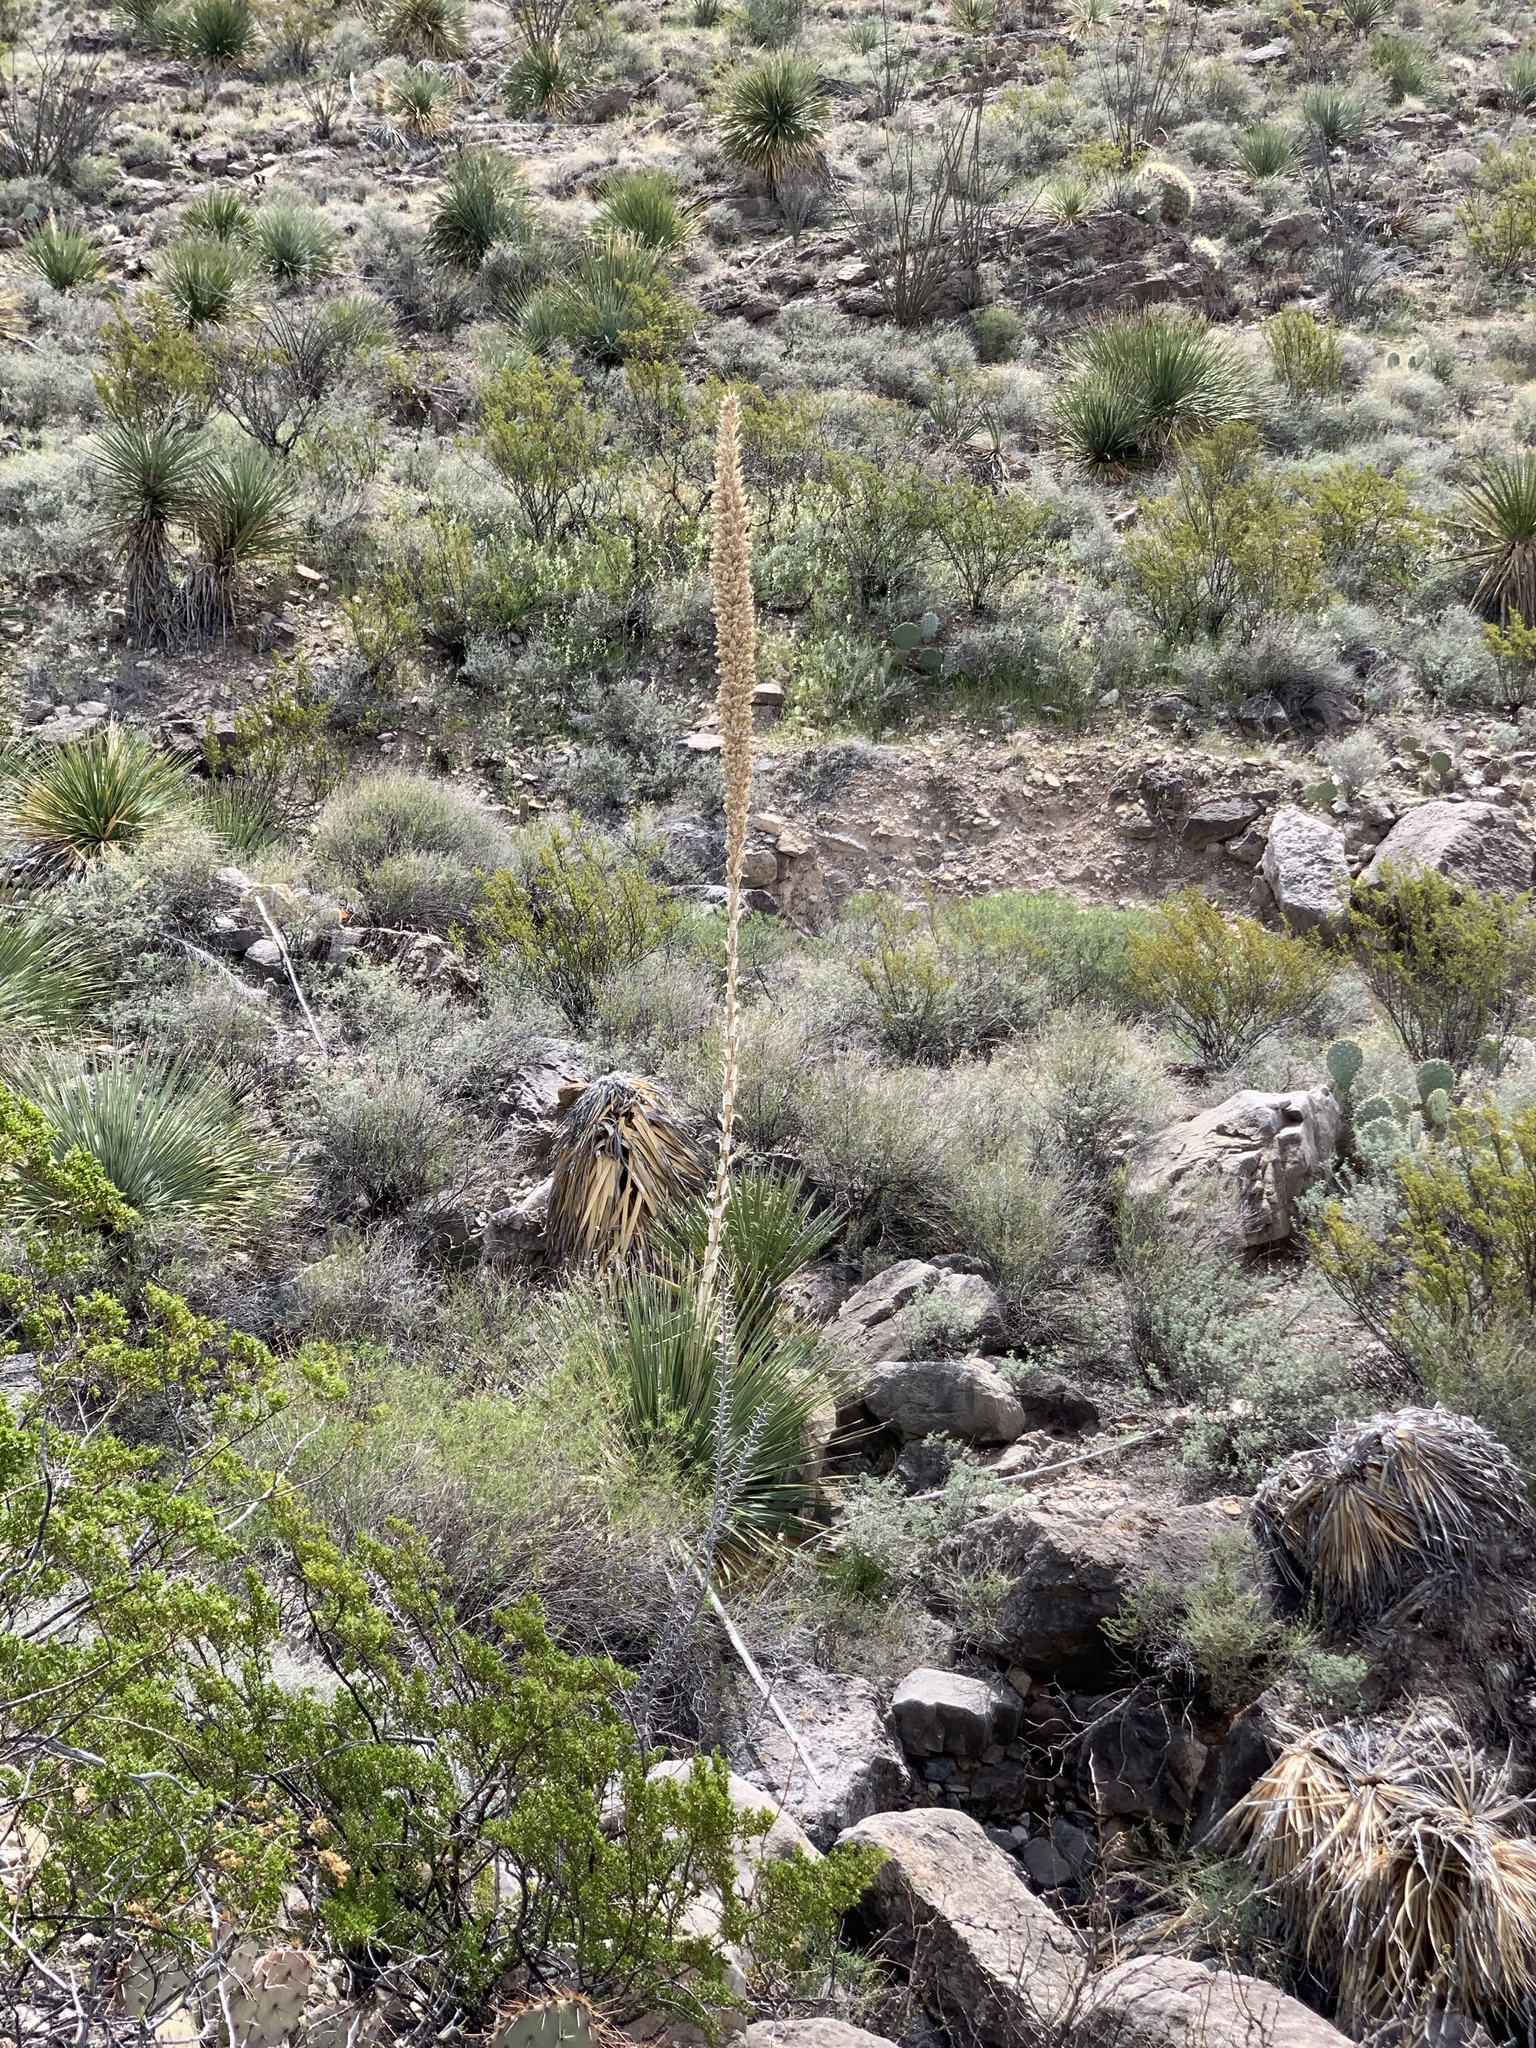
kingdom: Plantae
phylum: Tracheophyta
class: Liliopsida
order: Asparagales
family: Asparagaceae
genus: Dasylirion
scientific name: Dasylirion wheeleri
